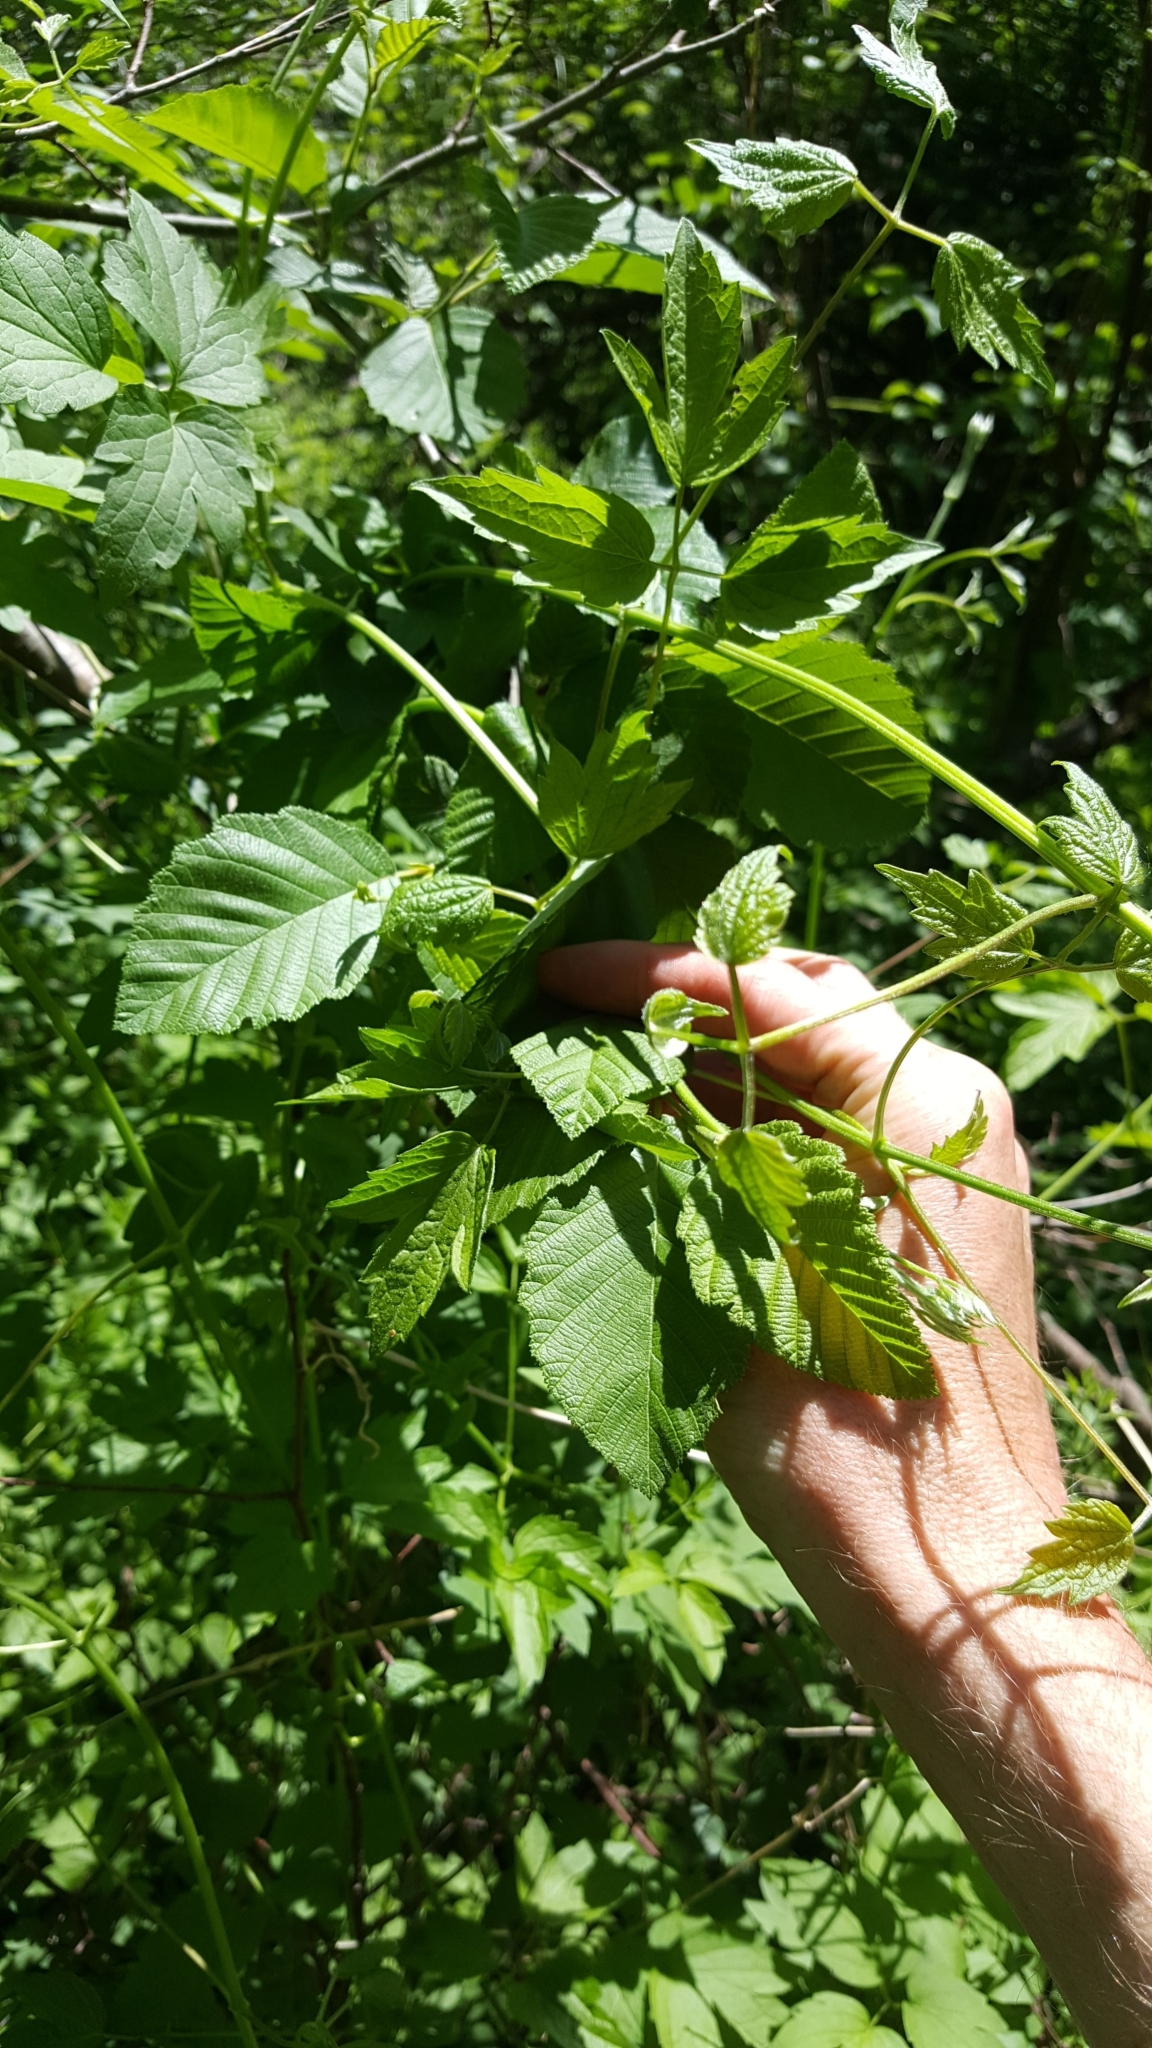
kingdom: Plantae
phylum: Tracheophyta
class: Magnoliopsida
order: Ranunculales
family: Ranunculaceae
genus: Clematis
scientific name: Clematis virginiana
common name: Virgin's-bower
